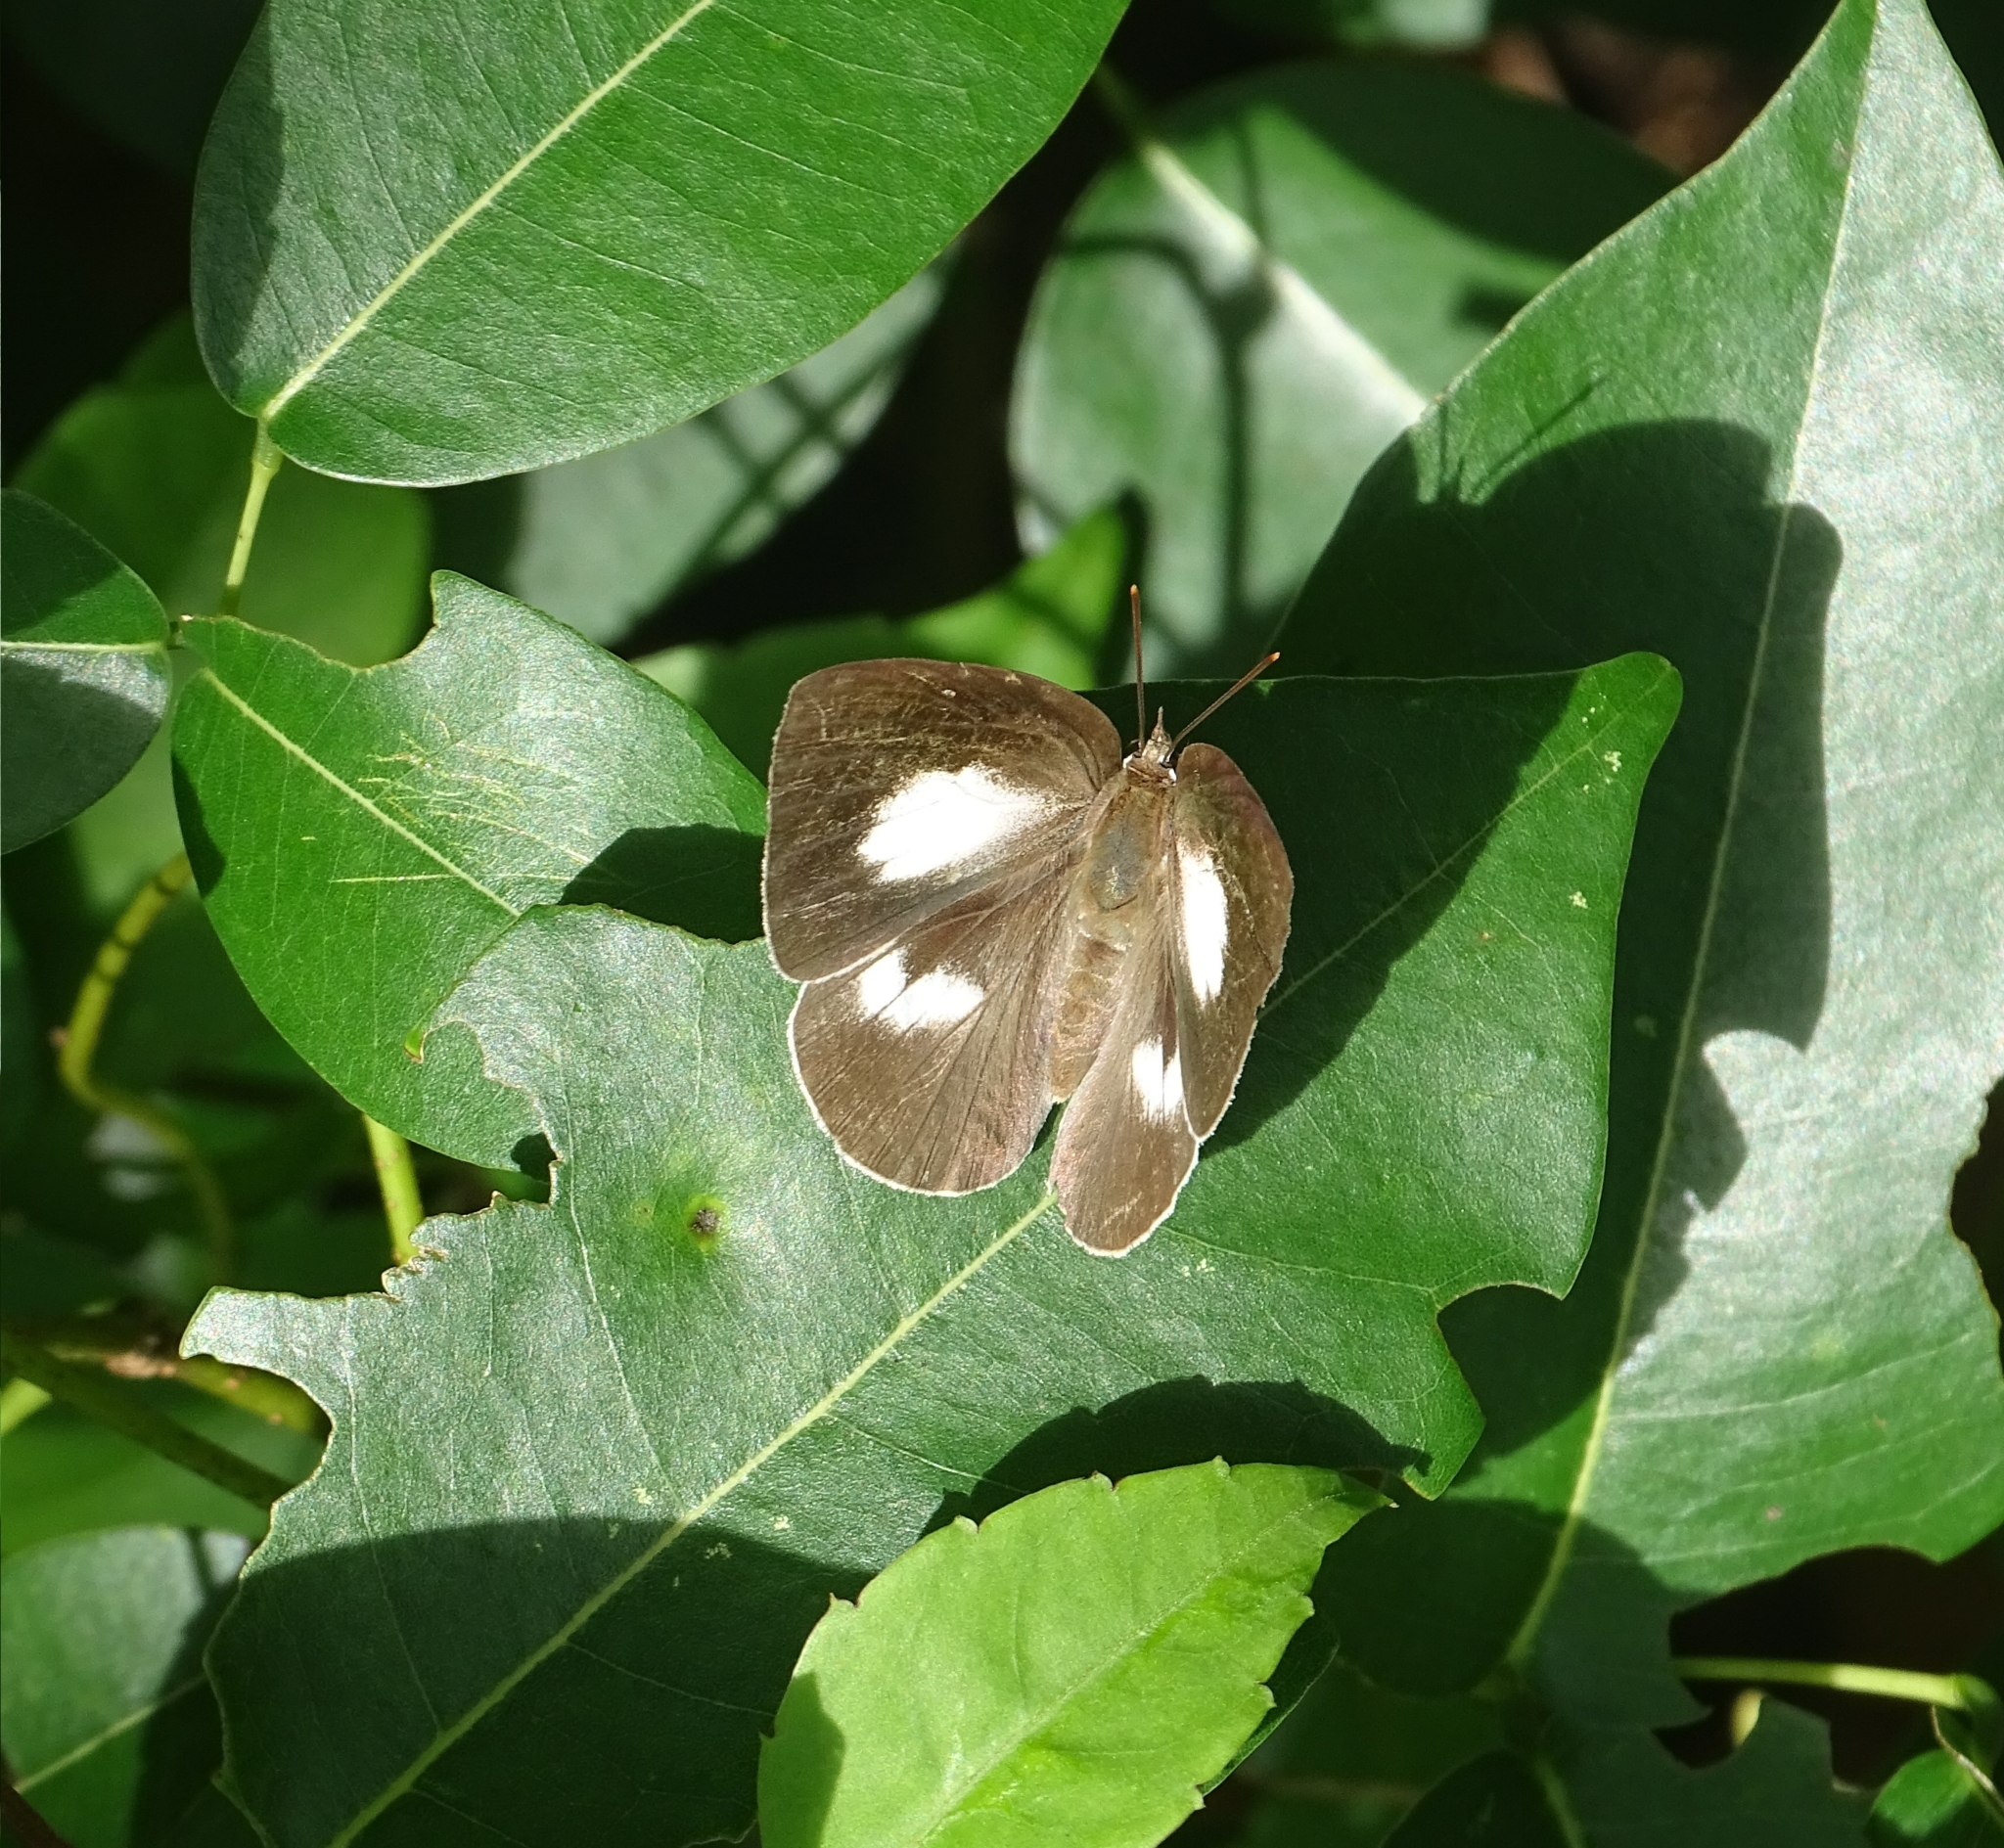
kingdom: Animalia
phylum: Arthropoda
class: Insecta
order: Lepidoptera
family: Lycaenidae
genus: Curetis
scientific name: Curetis thetis
